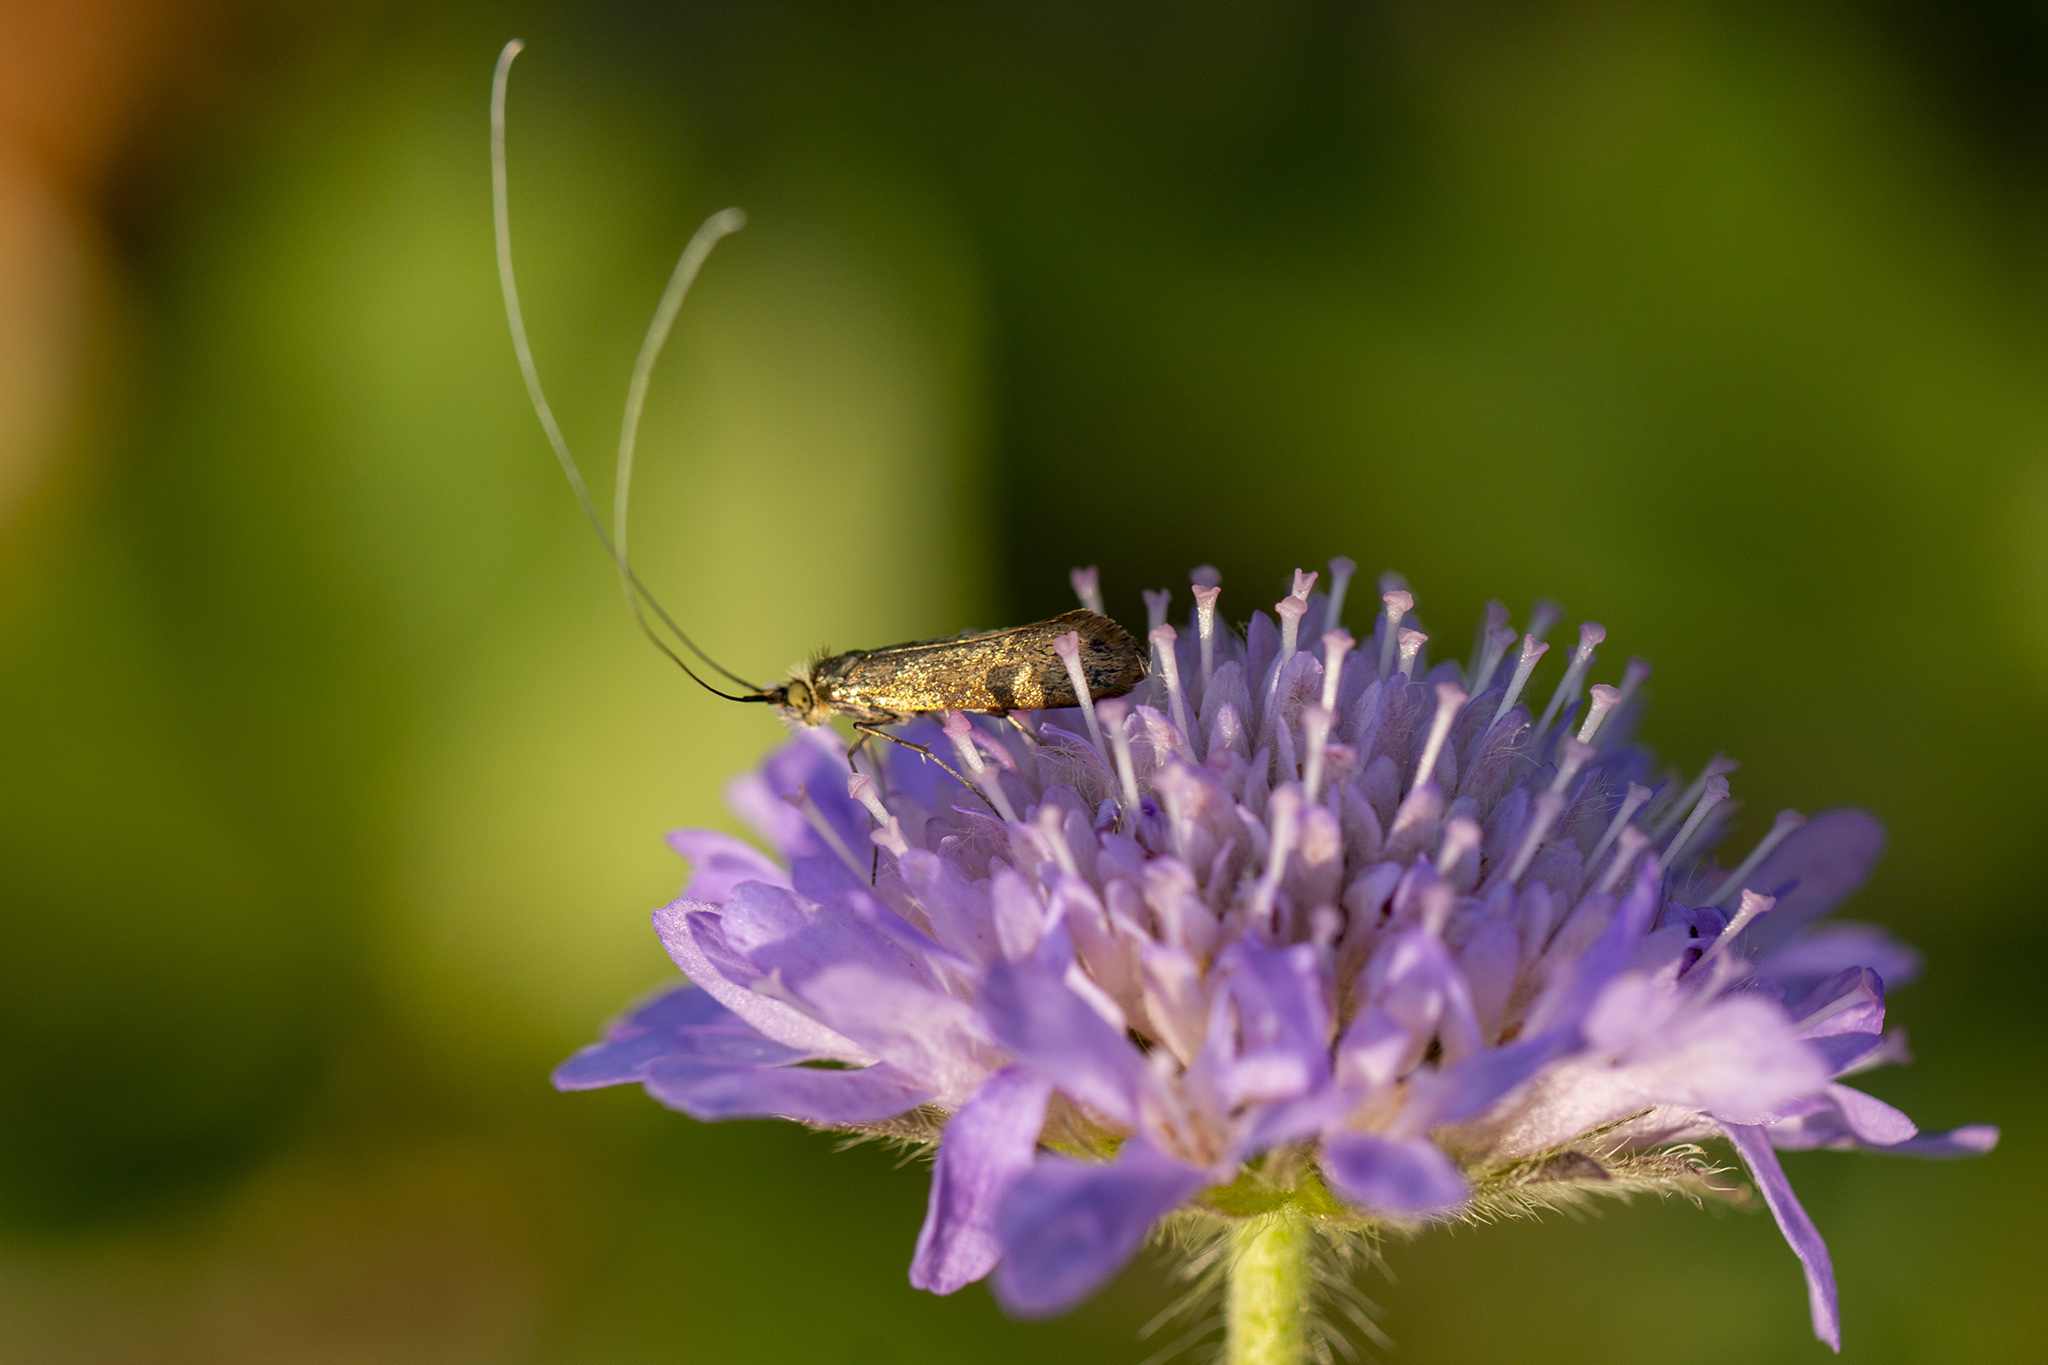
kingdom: Animalia
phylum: Arthropoda
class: Insecta
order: Lepidoptera
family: Adelidae
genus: Nemophora
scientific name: Nemophora metallica
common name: Brassy long-horn
